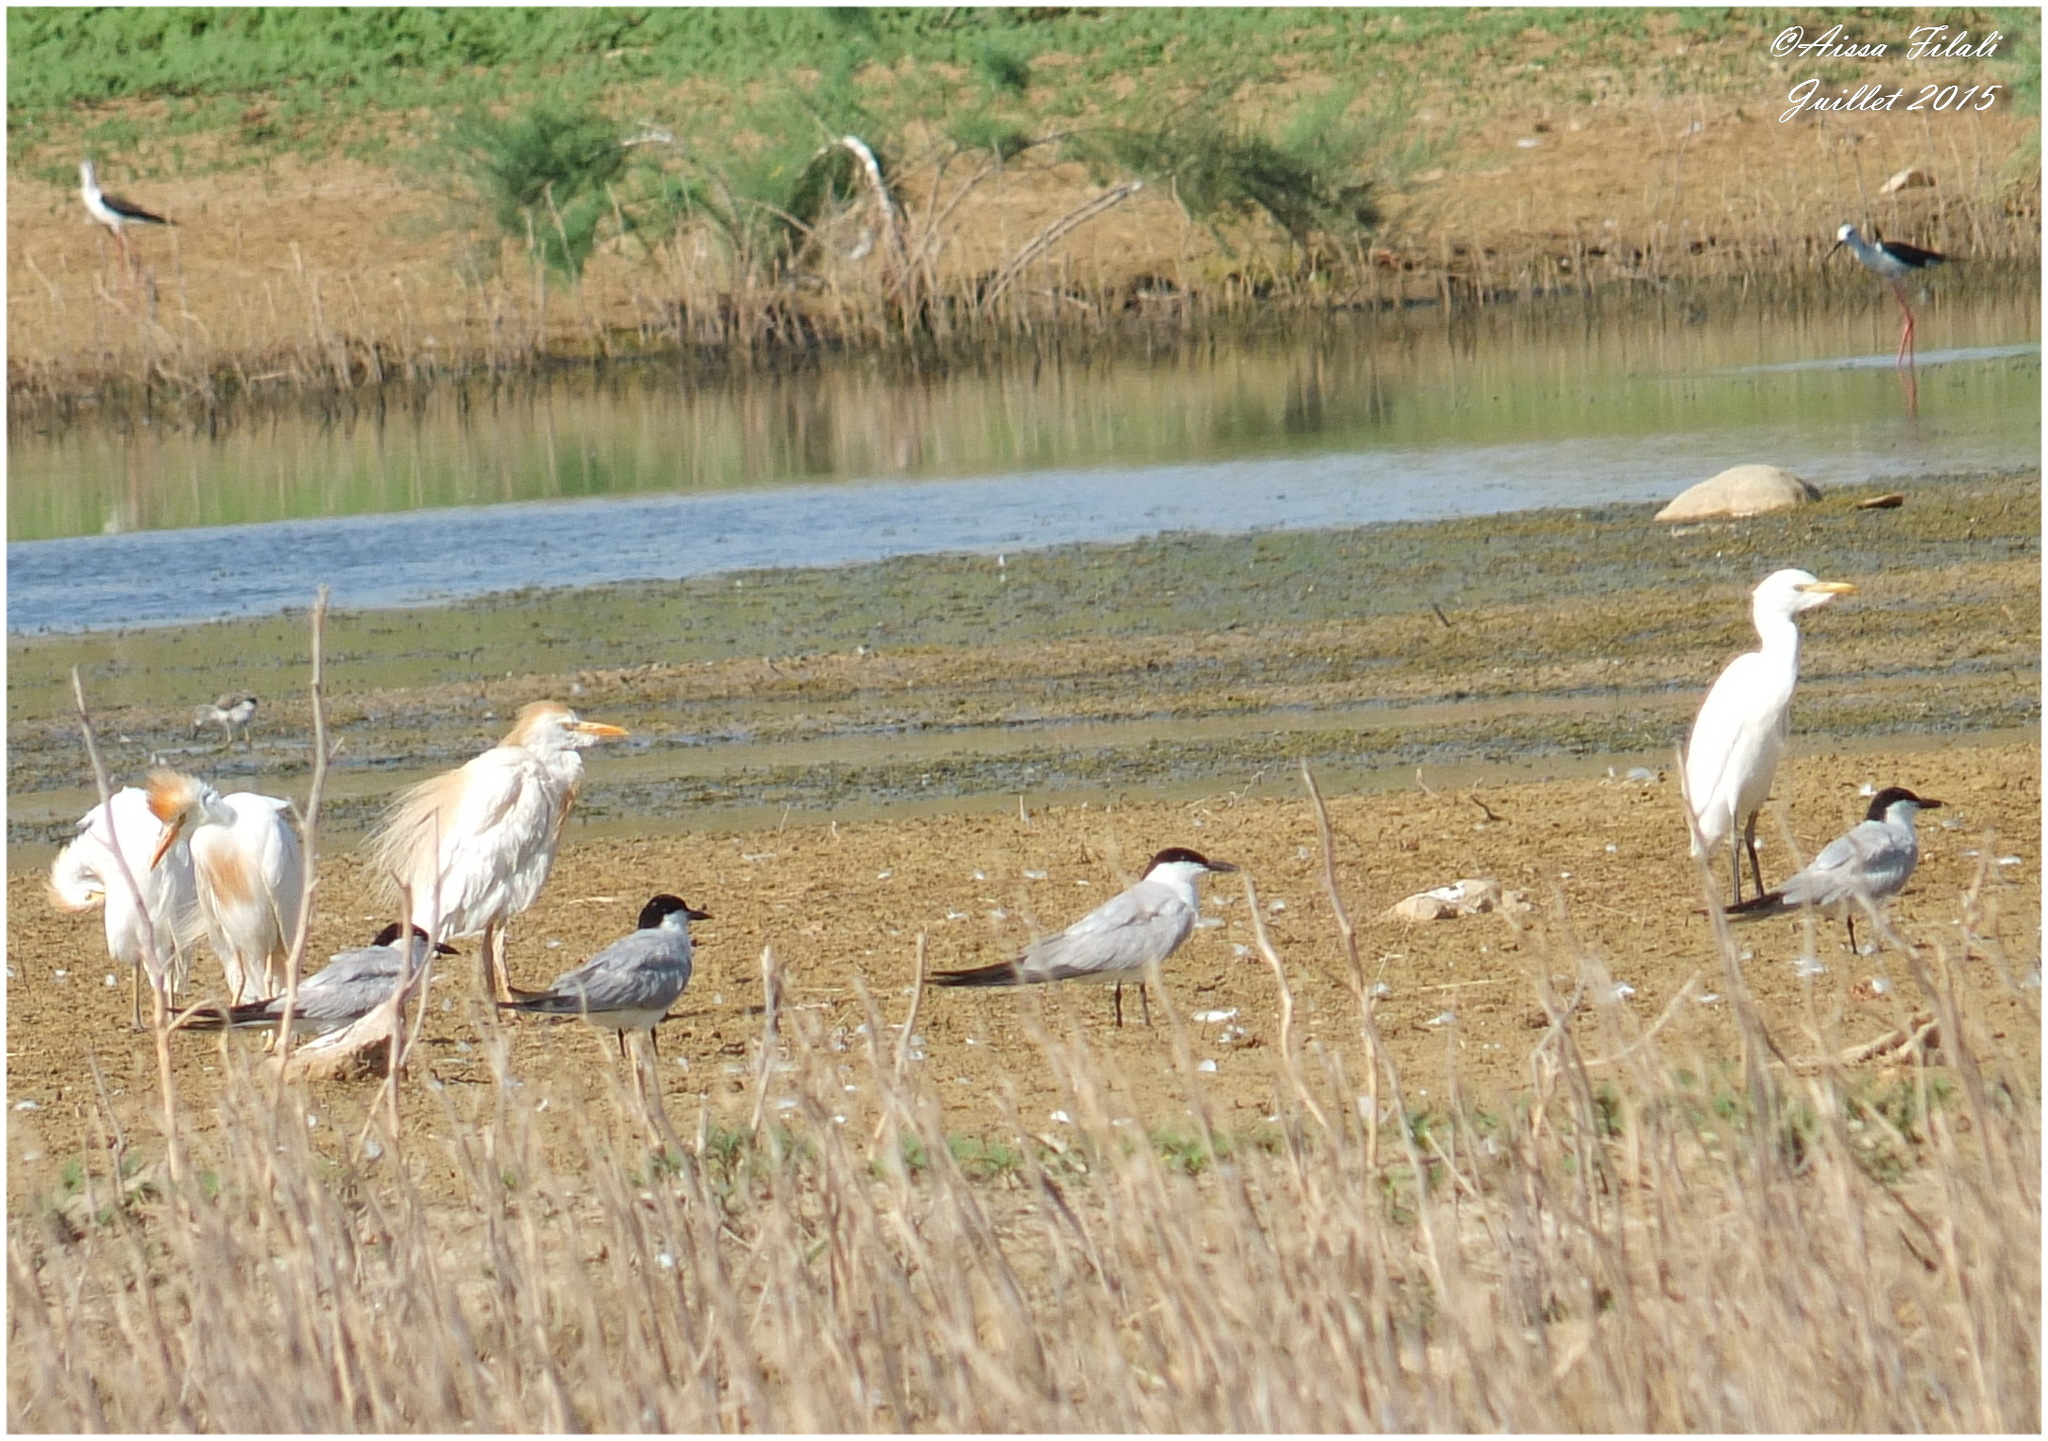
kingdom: Animalia
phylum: Chordata
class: Aves
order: Charadriiformes
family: Laridae
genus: Gelochelidon
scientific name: Gelochelidon nilotica
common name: Gull-billed tern
